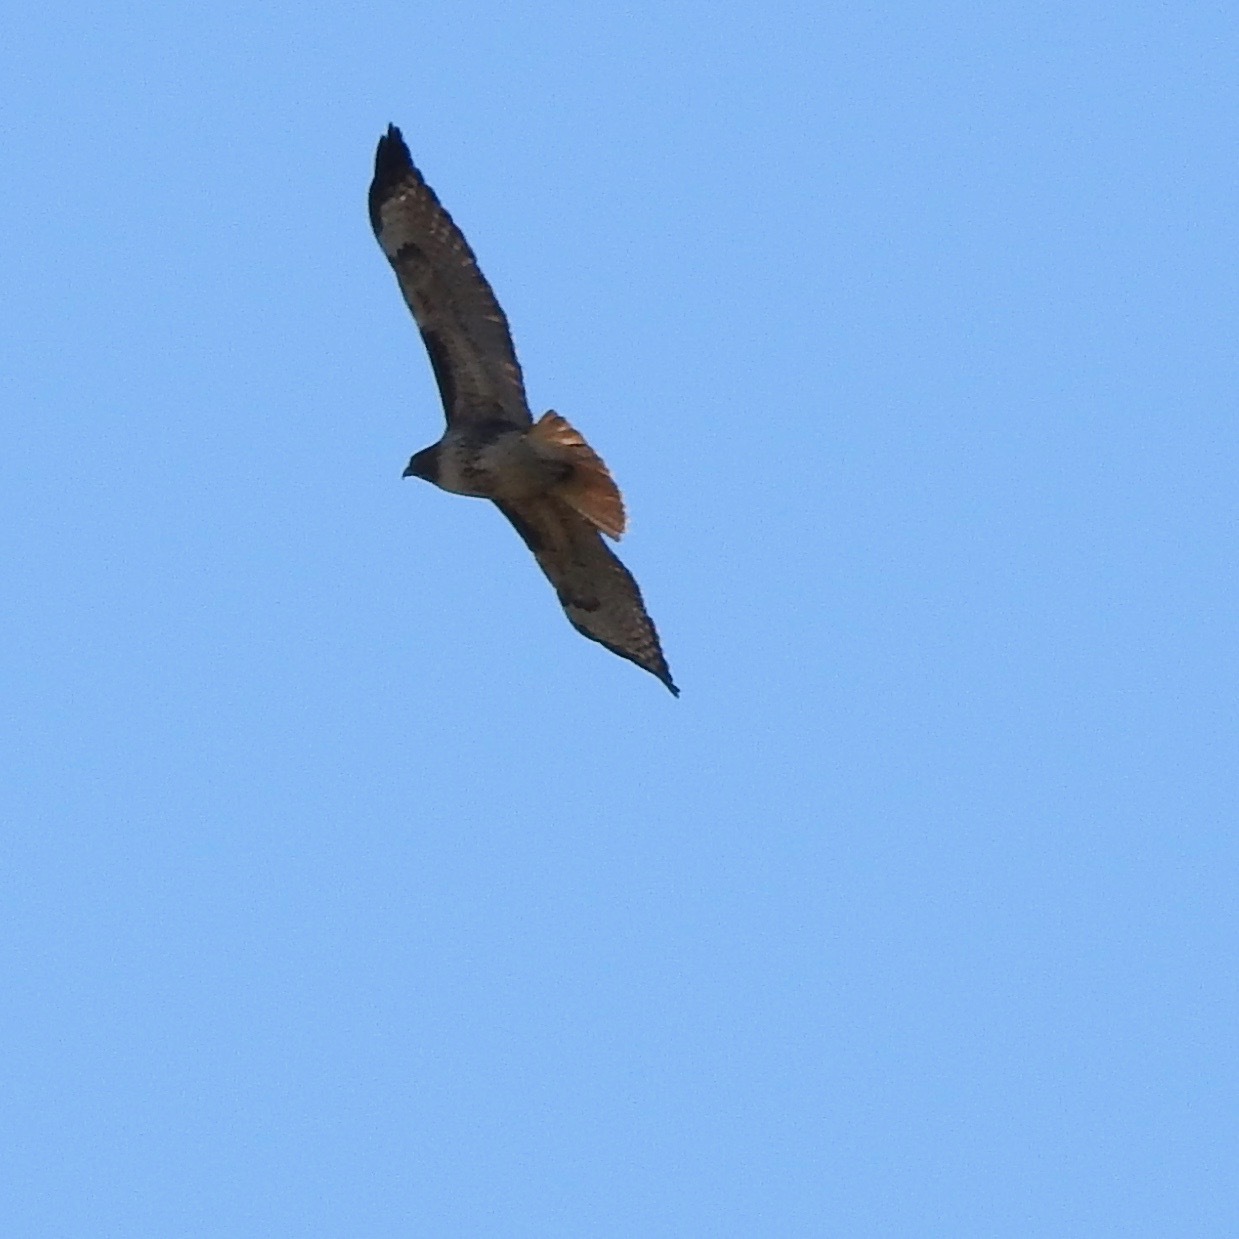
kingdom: Animalia
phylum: Chordata
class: Aves
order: Accipitriformes
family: Accipitridae
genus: Buteo
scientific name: Buteo jamaicensis
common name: Red-tailed hawk
